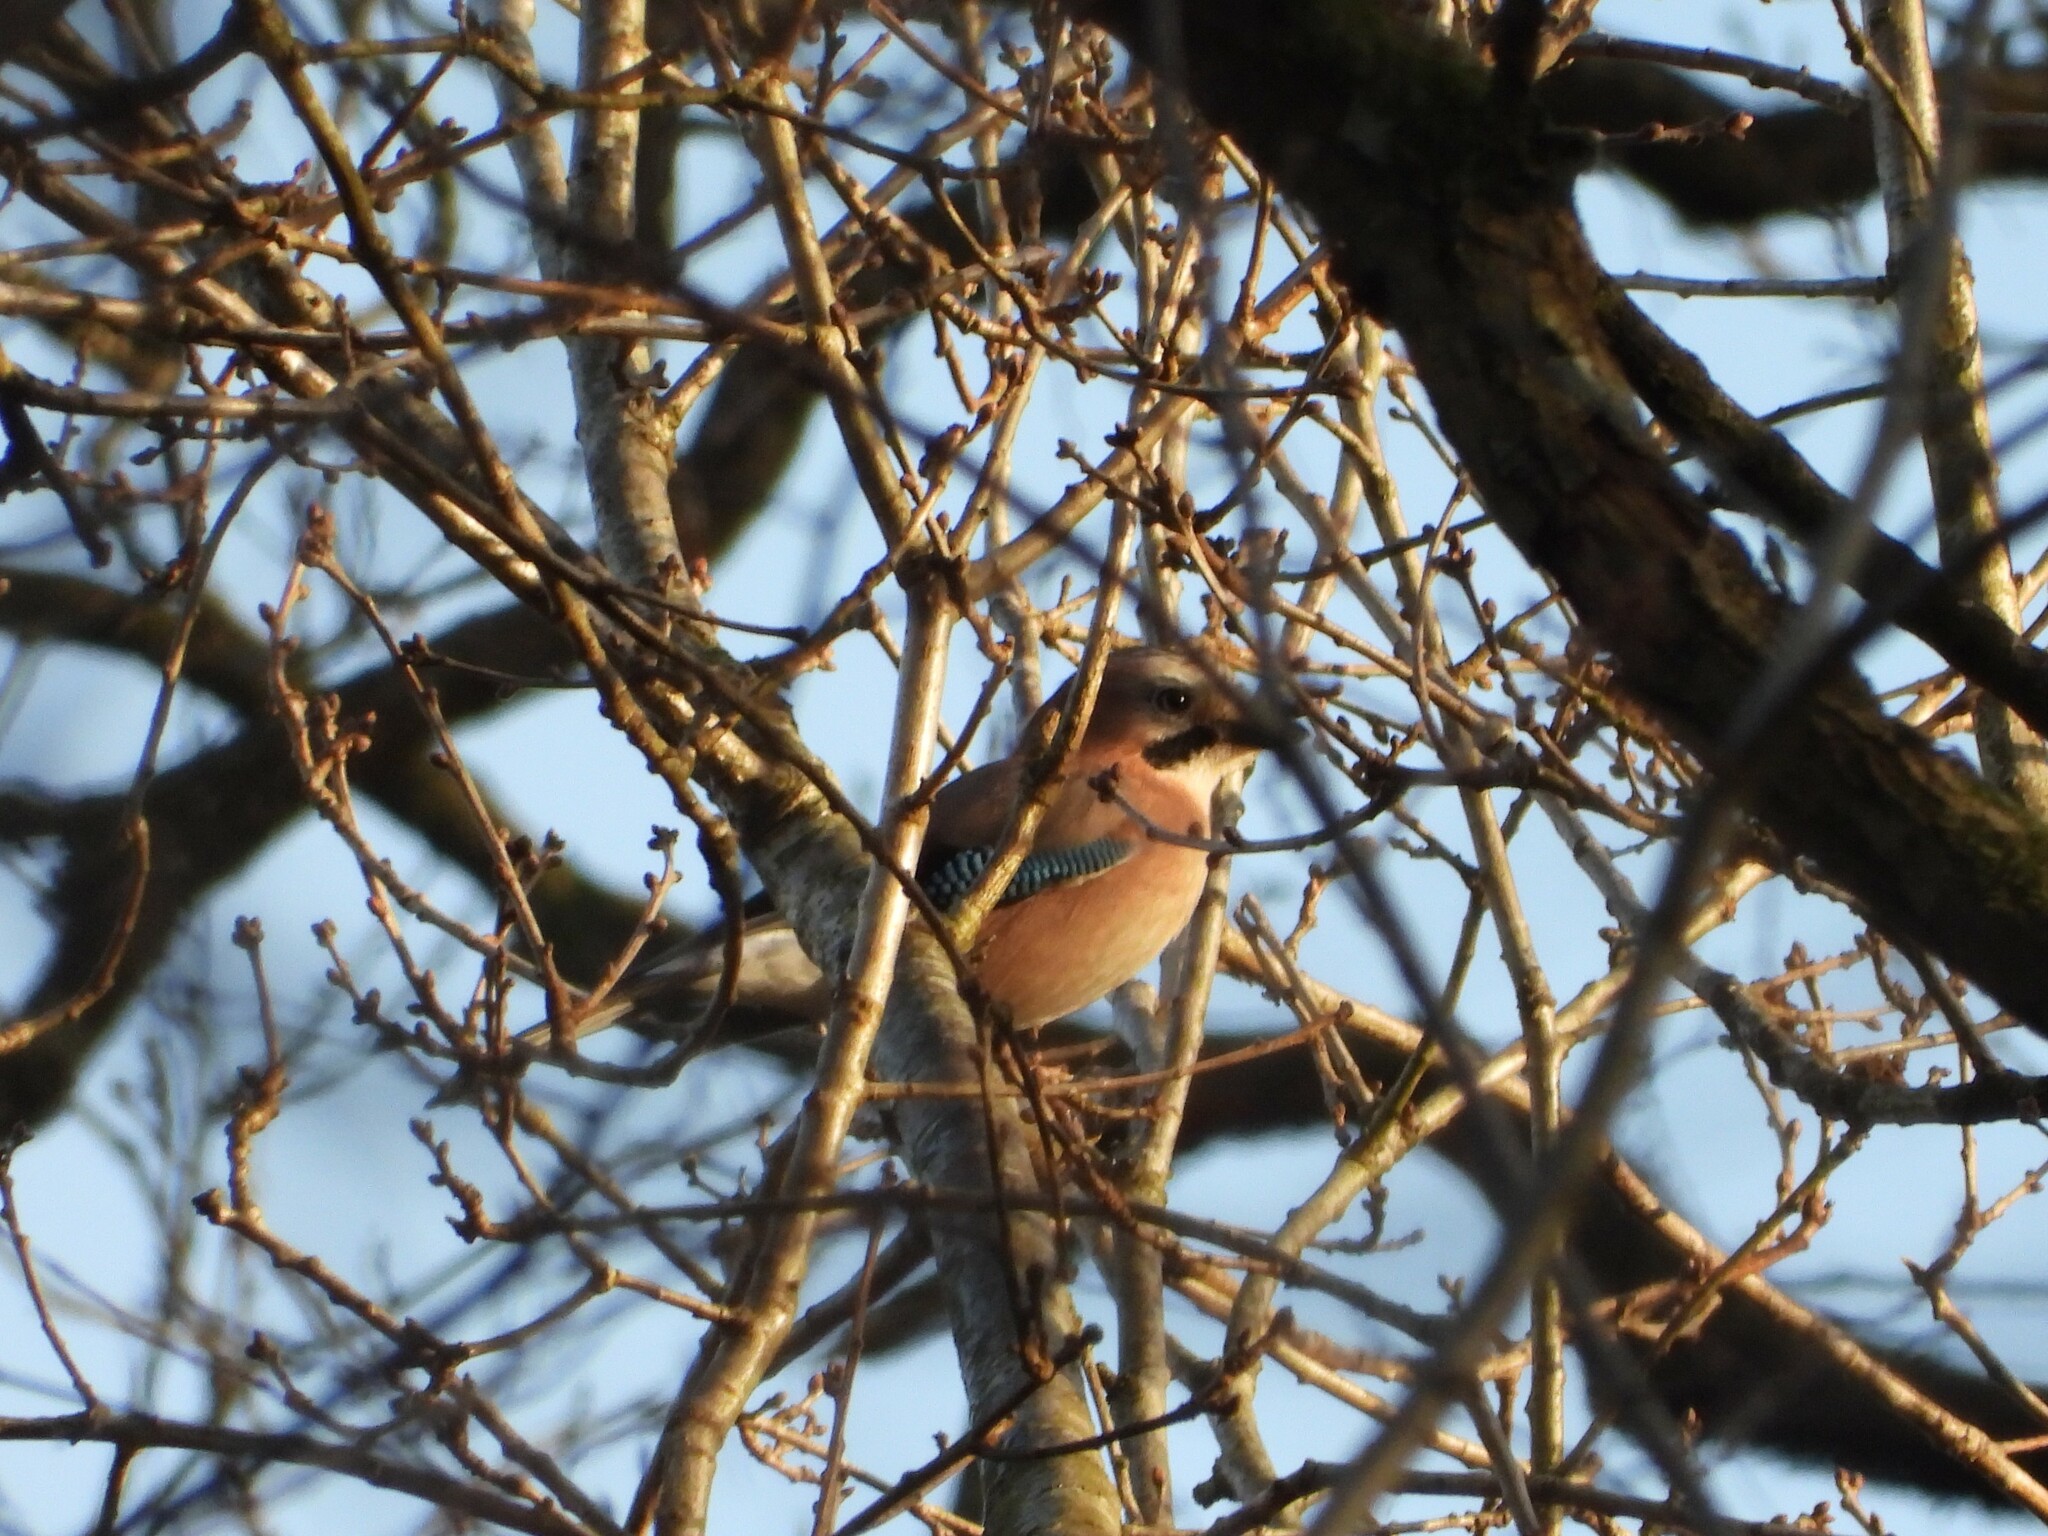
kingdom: Animalia
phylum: Chordata
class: Aves
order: Passeriformes
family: Corvidae
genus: Garrulus
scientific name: Garrulus glandarius
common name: Eurasian jay
